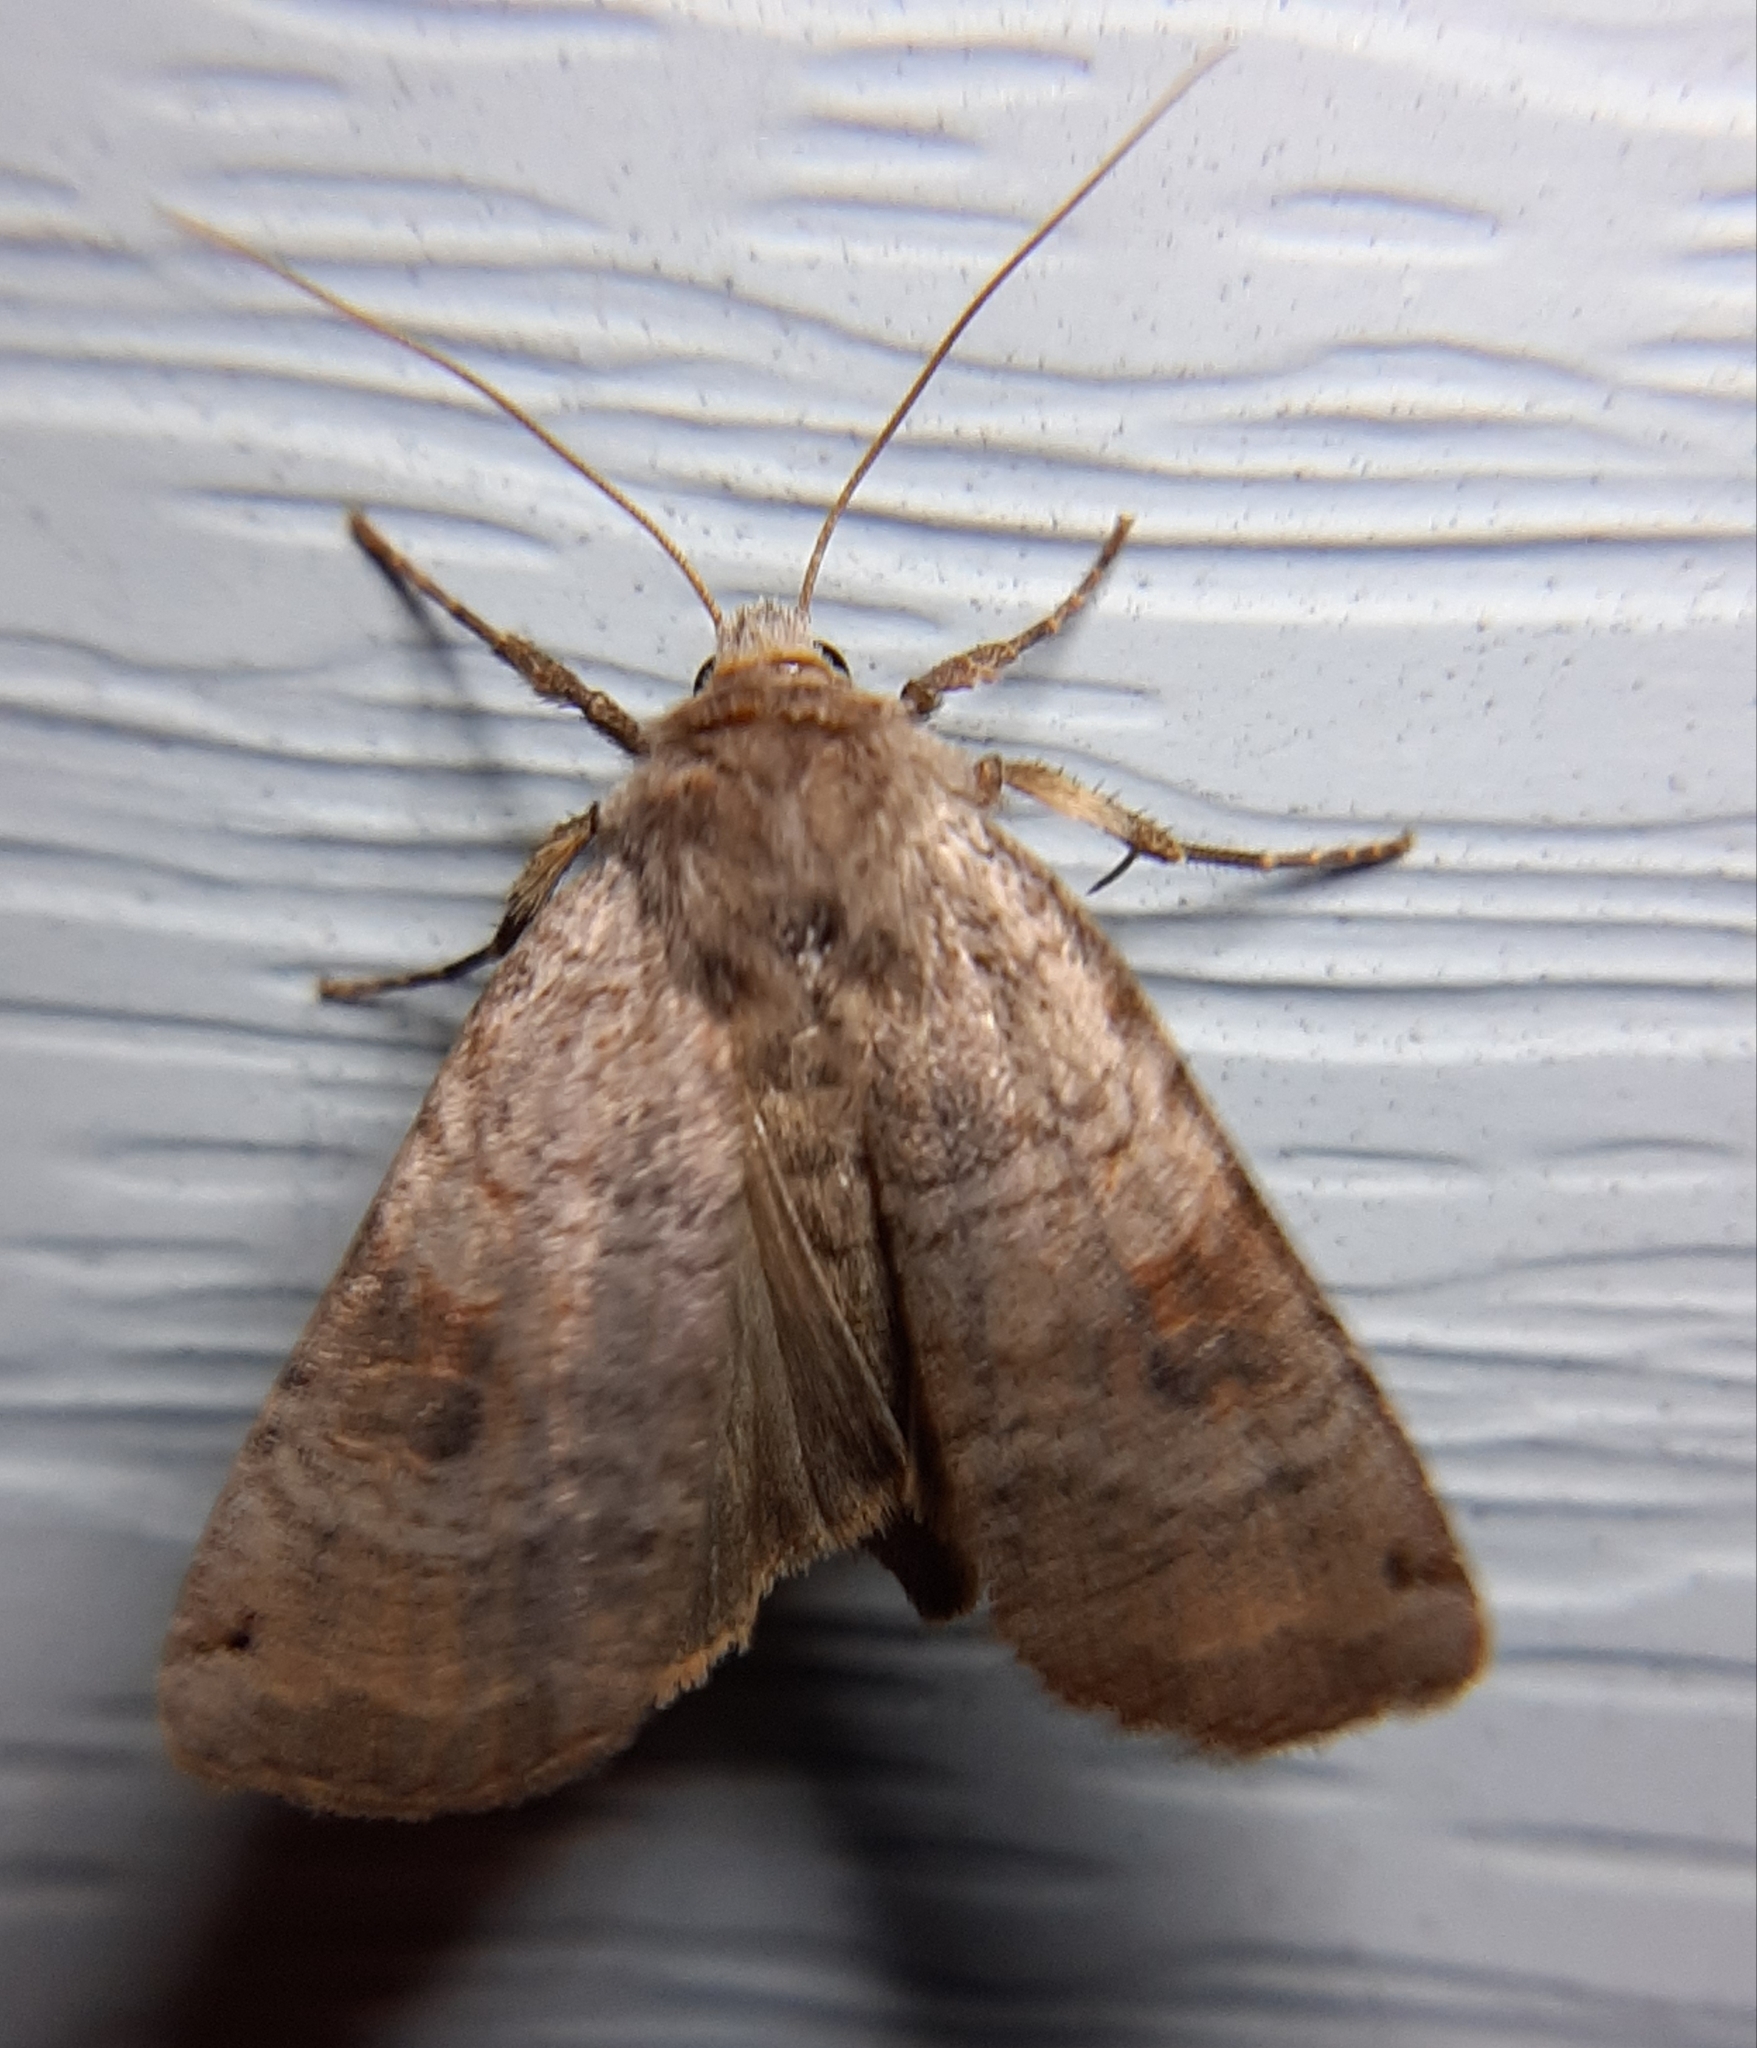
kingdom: Animalia
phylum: Arthropoda
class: Insecta
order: Lepidoptera
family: Noctuidae
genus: Xestia
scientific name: Xestia smithii
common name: Smith's dart
